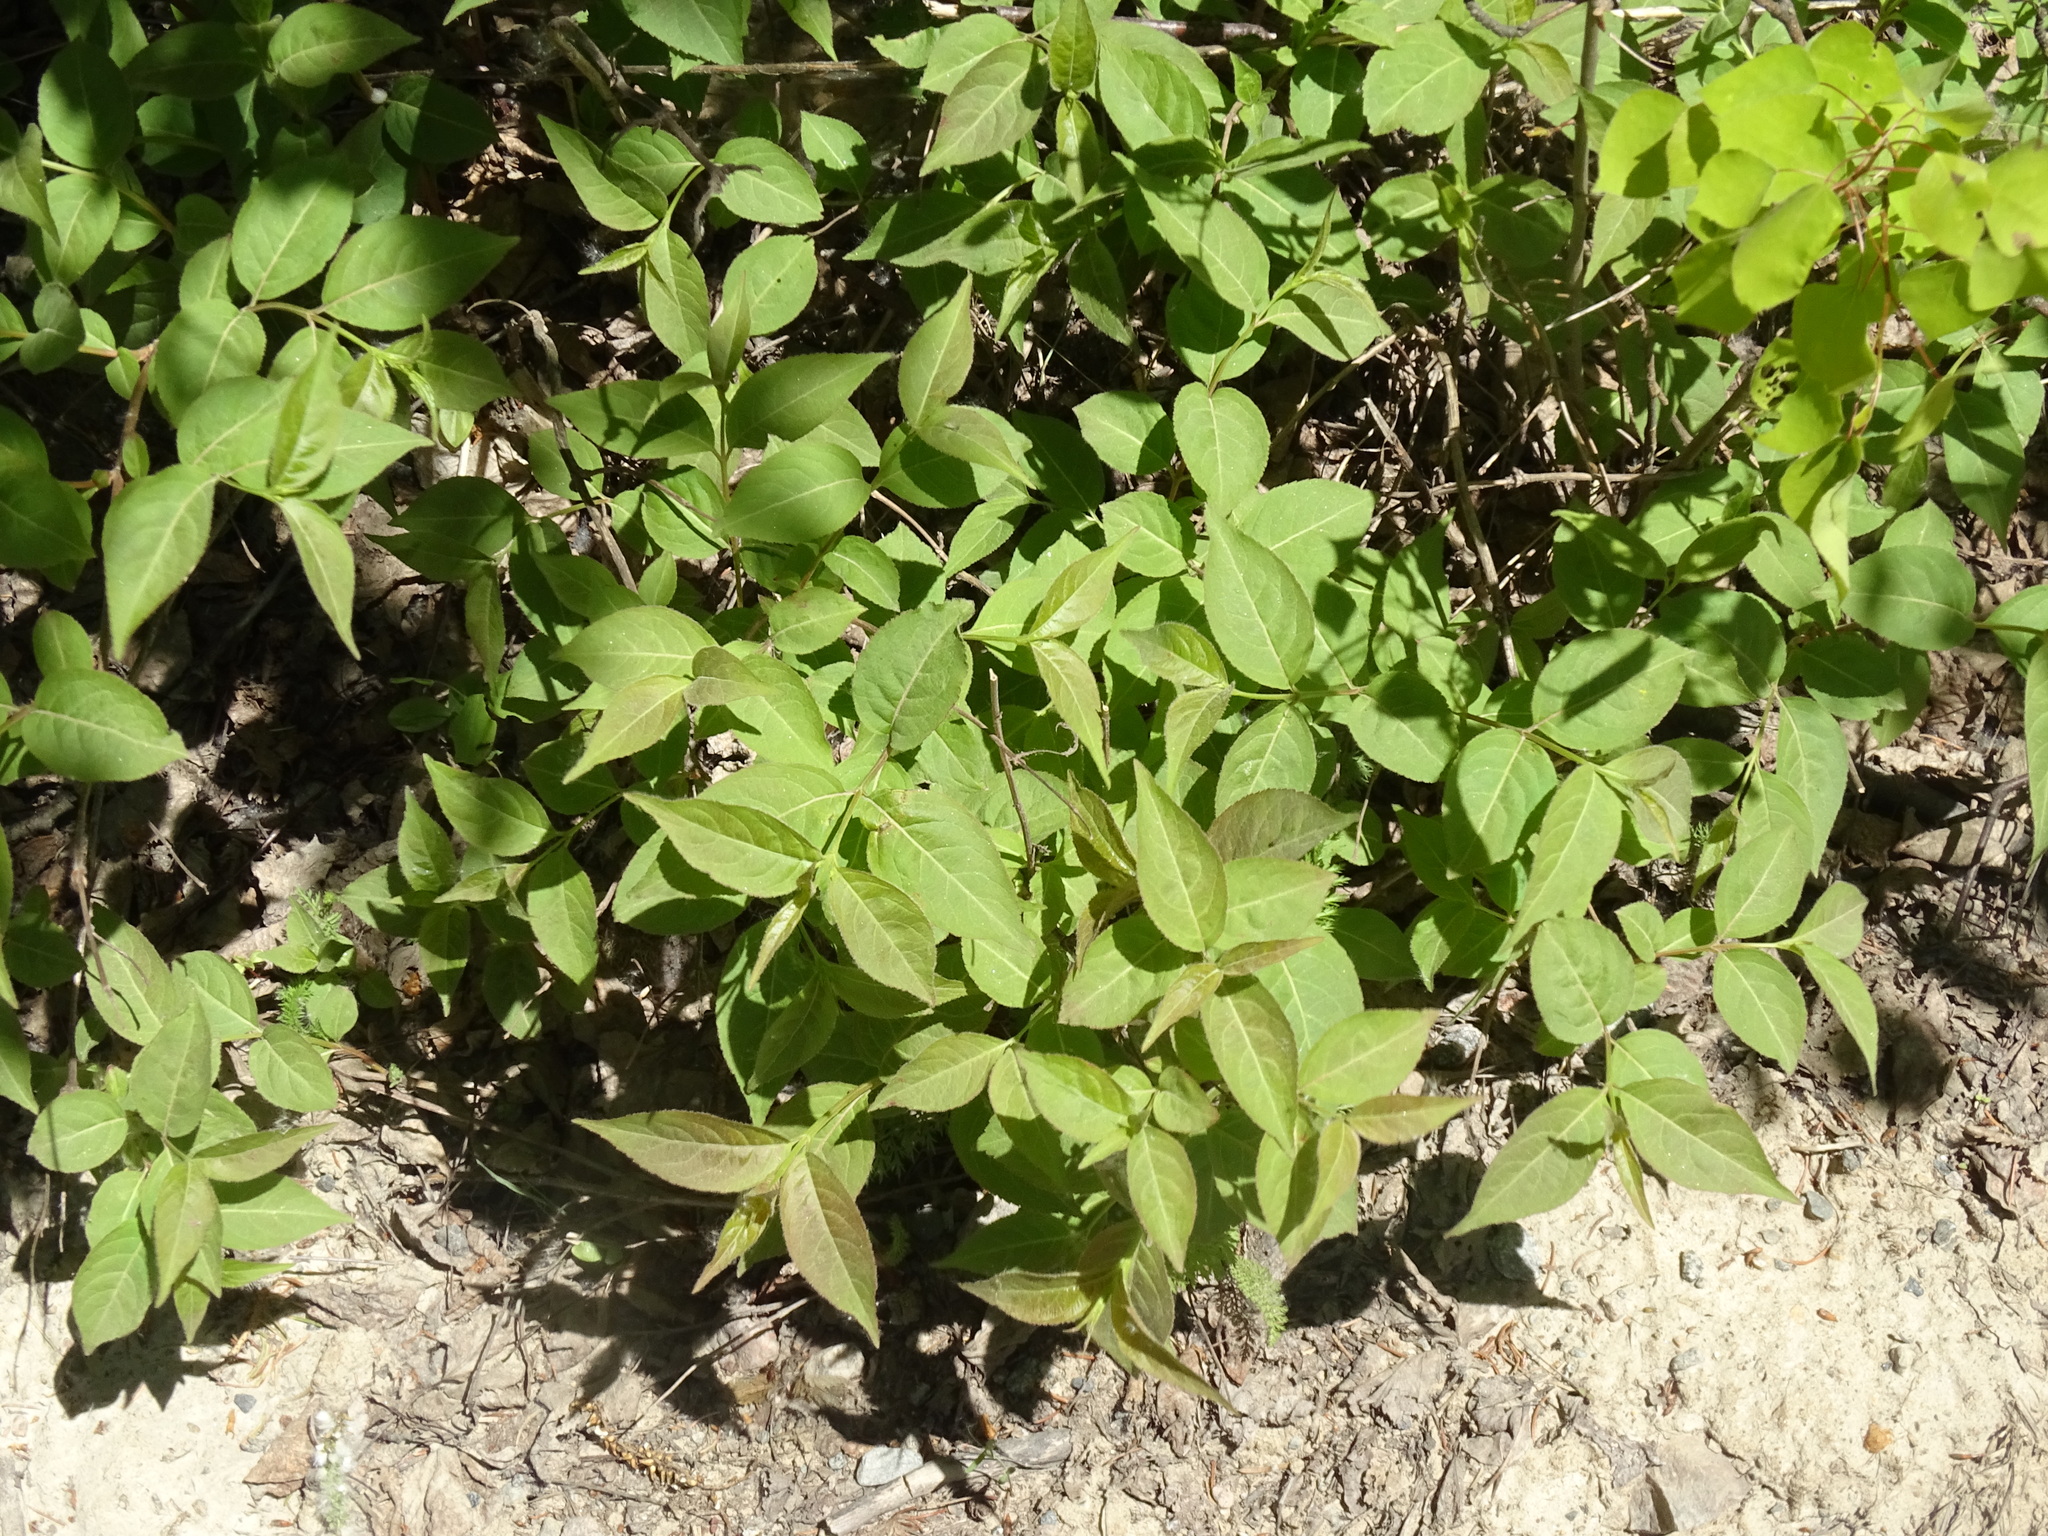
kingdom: Plantae
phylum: Tracheophyta
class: Magnoliopsida
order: Dipsacales
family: Caprifoliaceae
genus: Diervilla
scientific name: Diervilla lonicera
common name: Bush-honeysuckle
